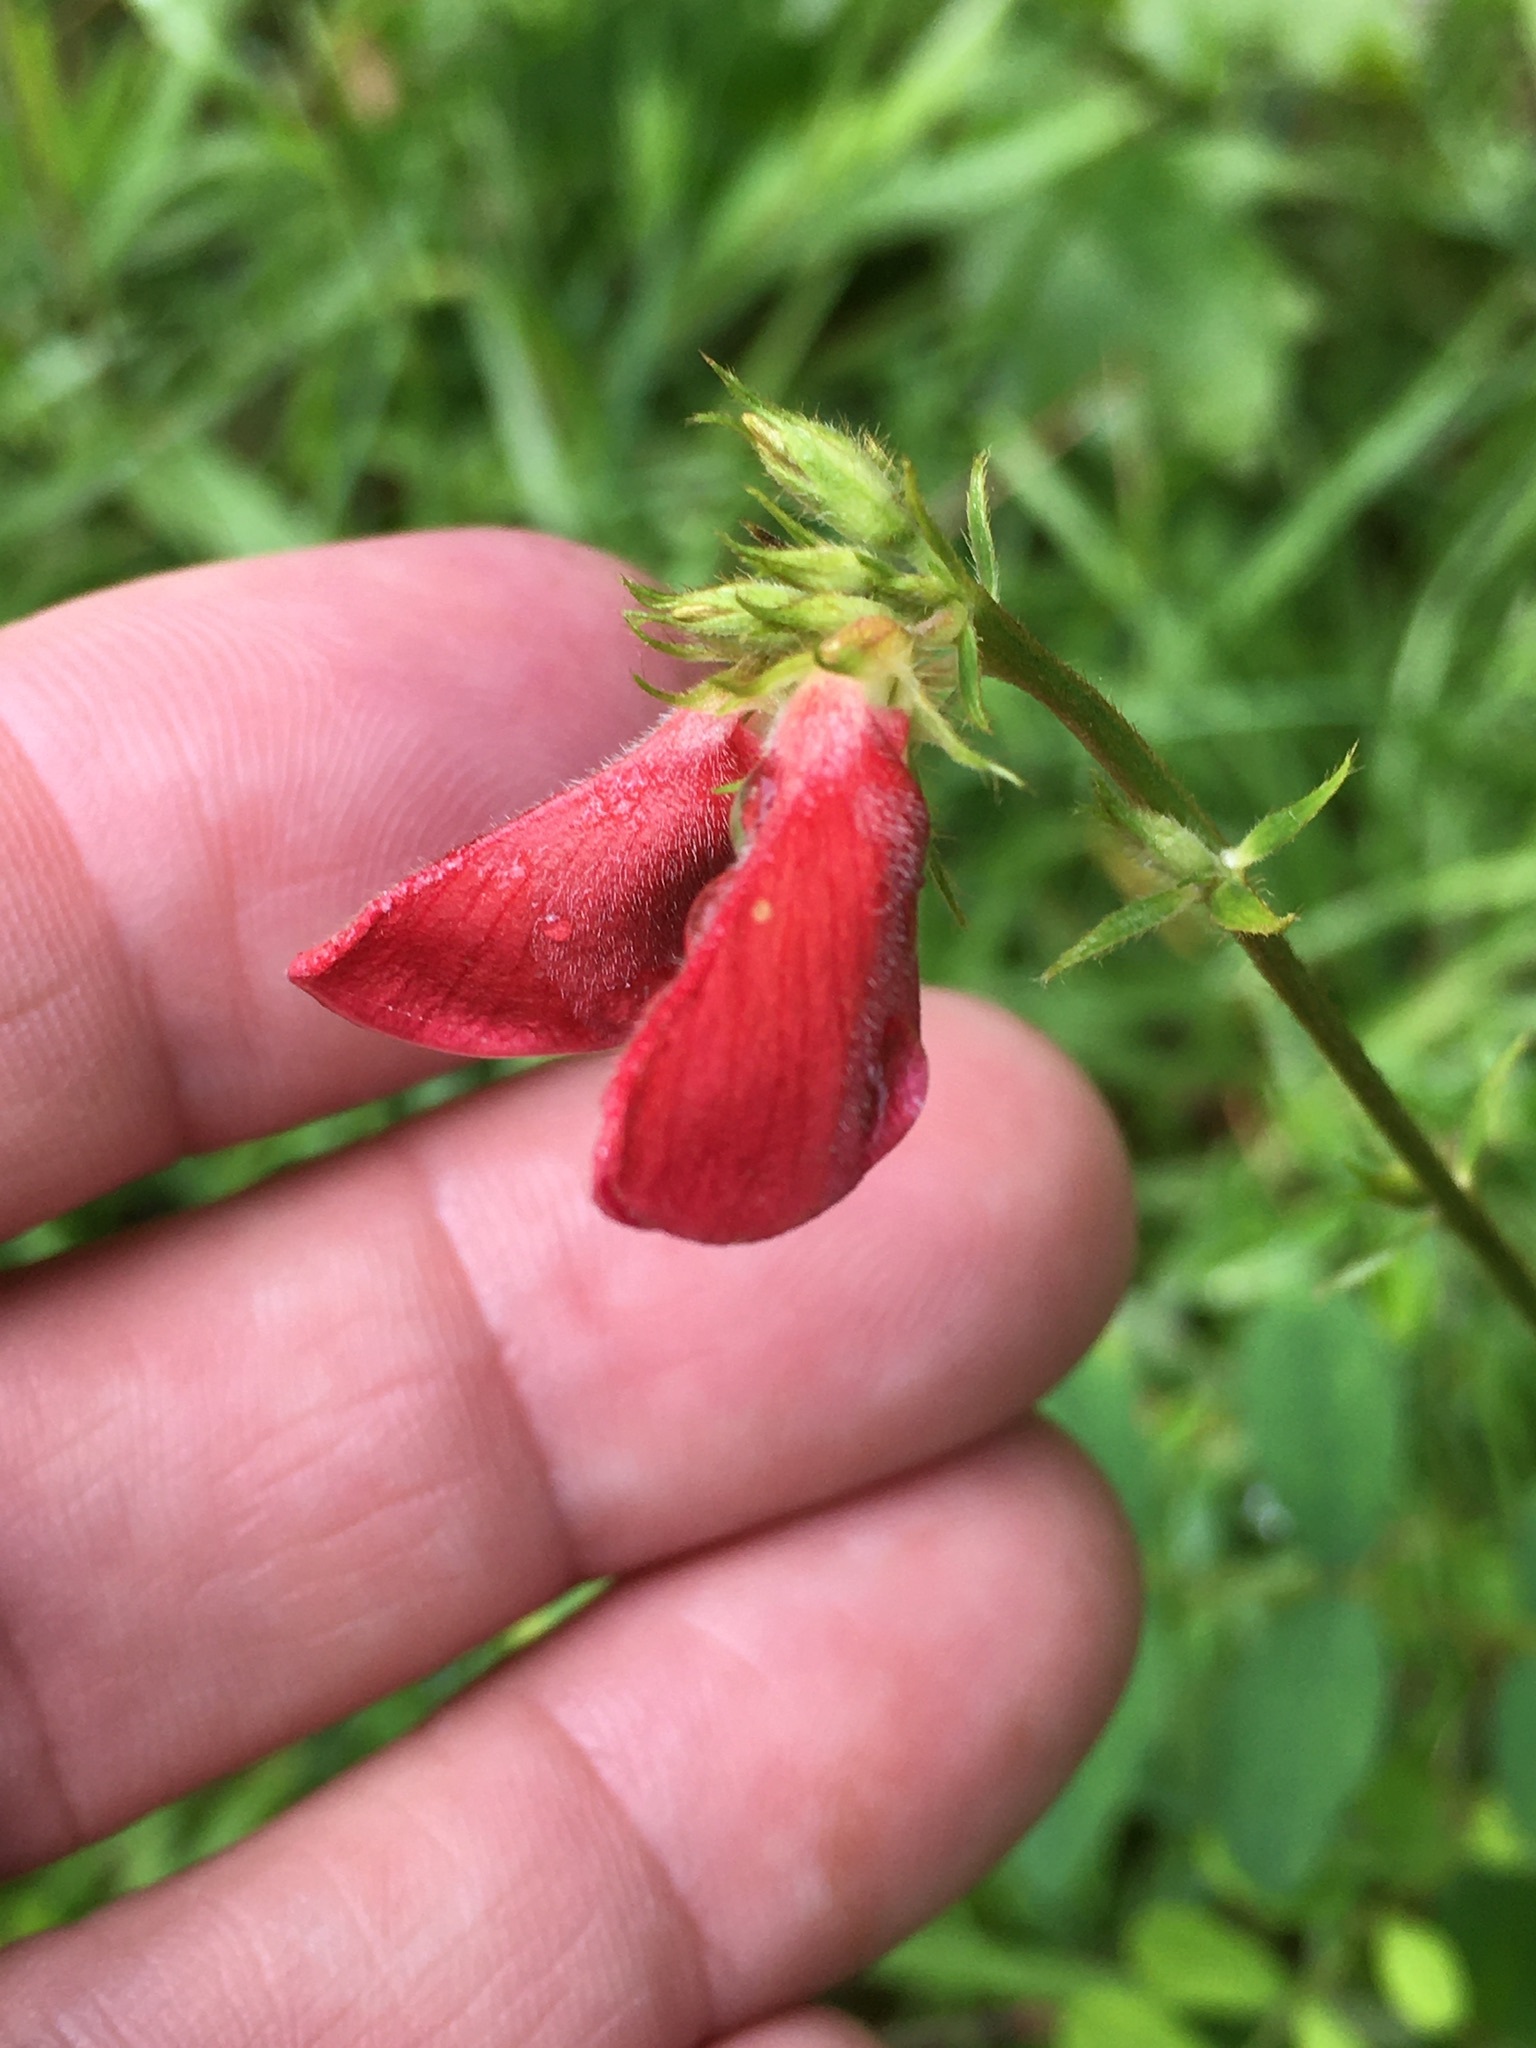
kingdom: Plantae
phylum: Tracheophyta
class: Magnoliopsida
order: Fabales
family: Fabaceae
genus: Tephrosia
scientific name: Tephrosia spicata
